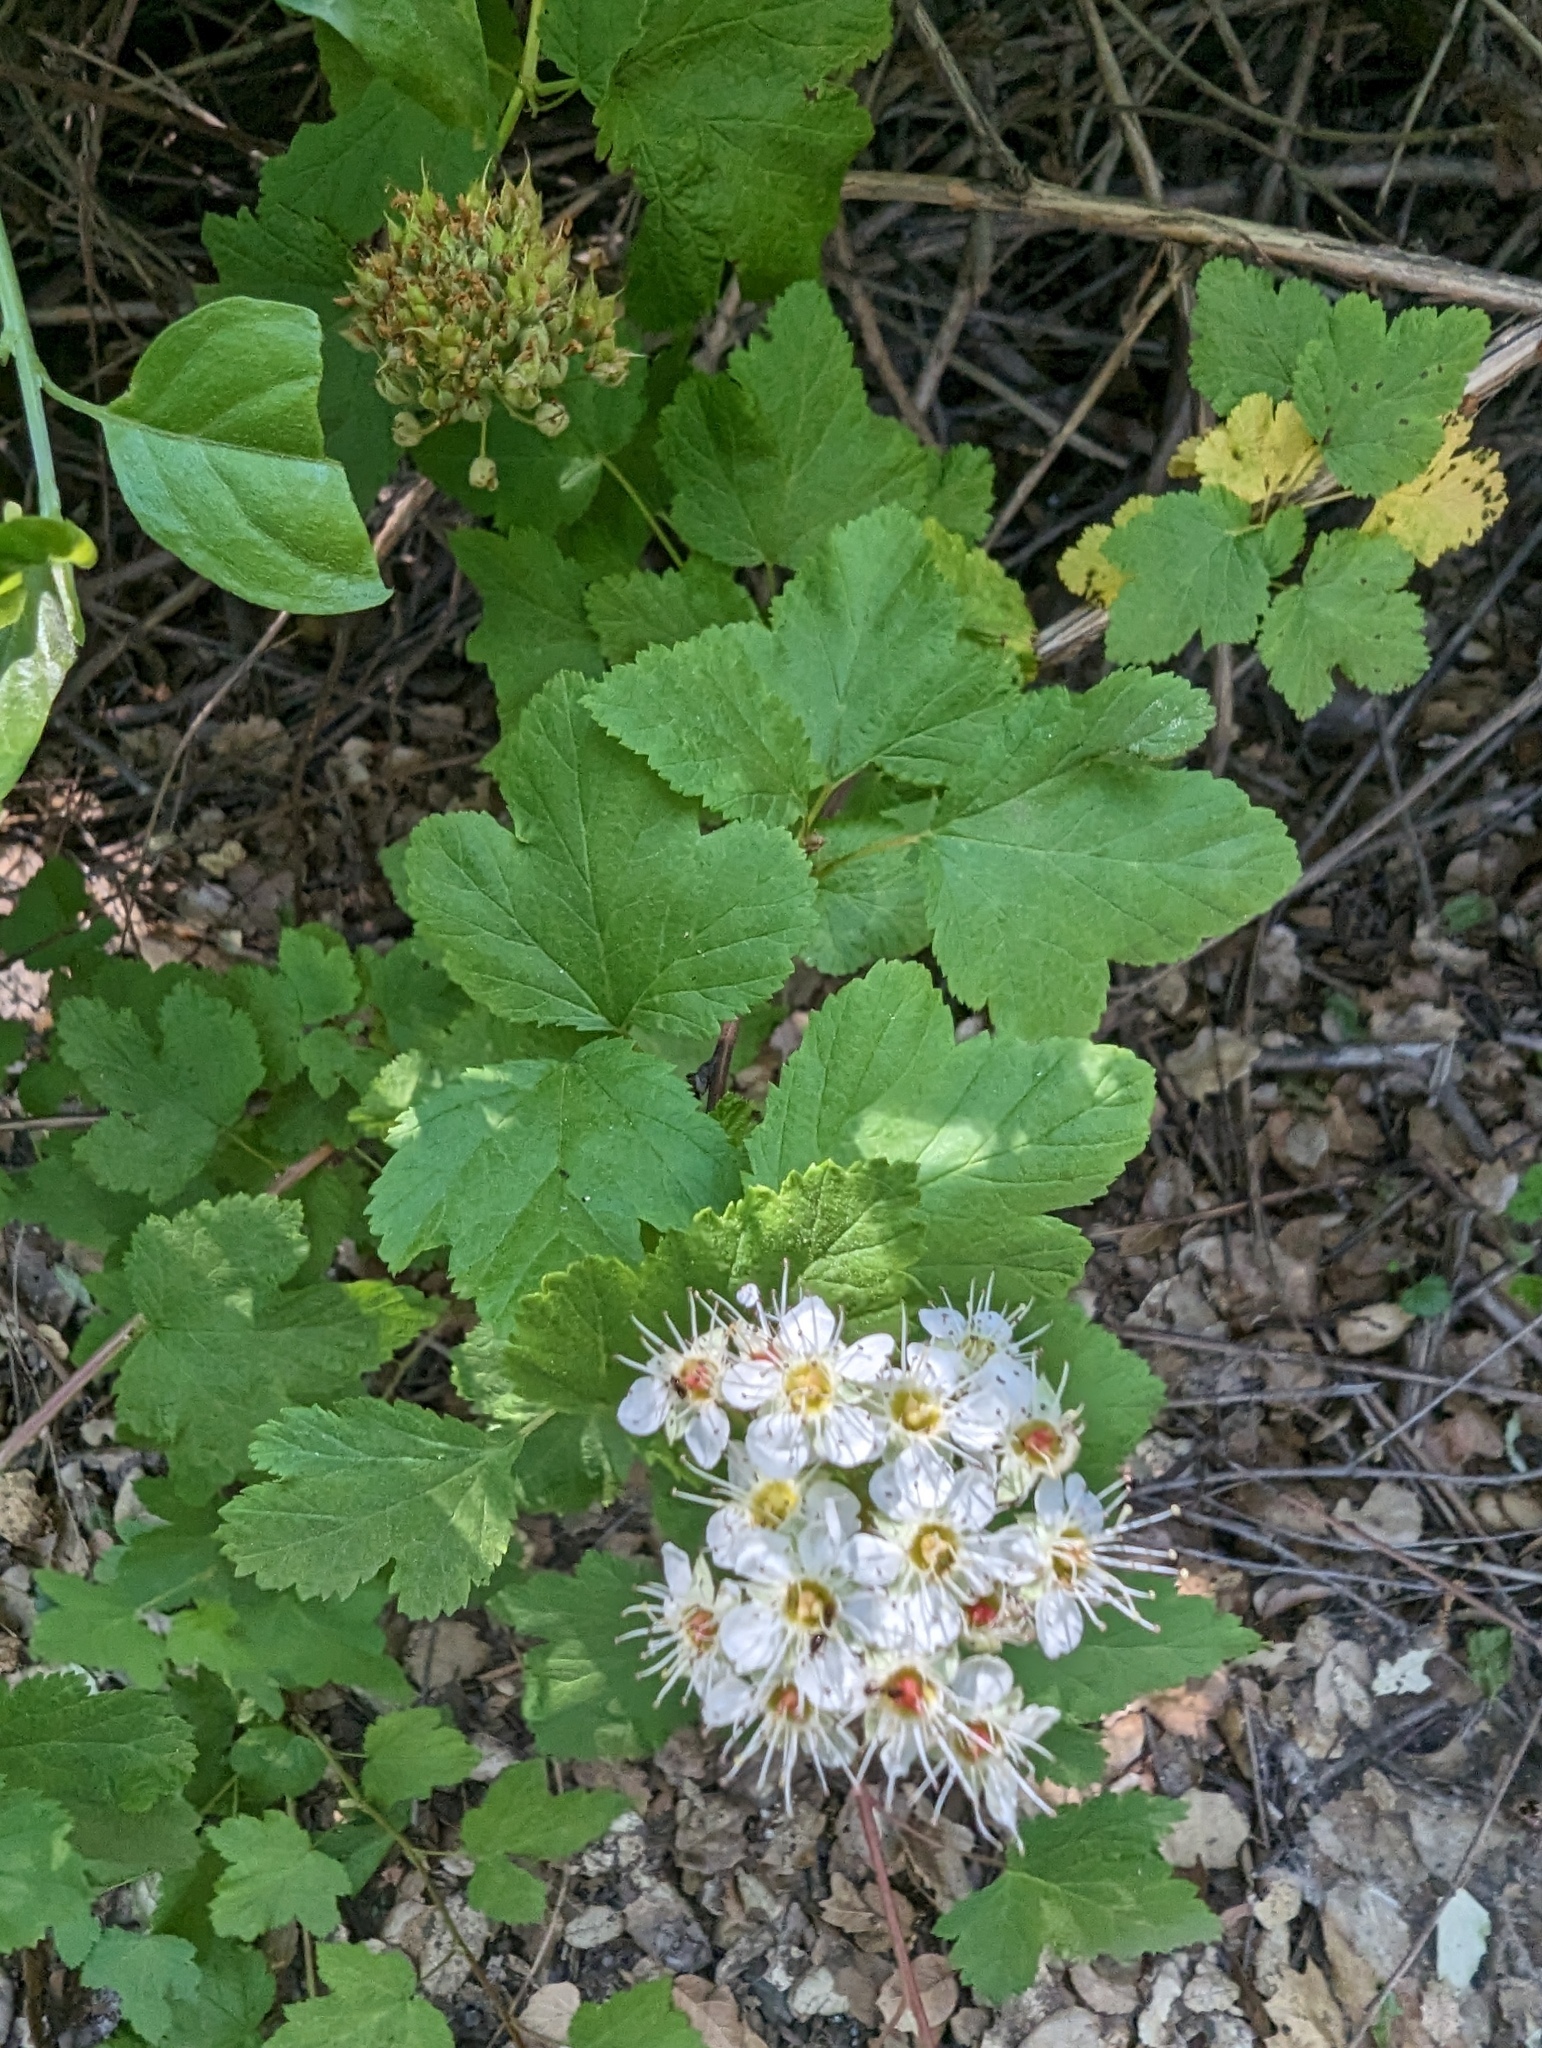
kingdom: Plantae
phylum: Tracheophyta
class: Magnoliopsida
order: Rosales
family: Rosaceae
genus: Physocarpus
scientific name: Physocarpus capitatus
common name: Pacific ninebark
